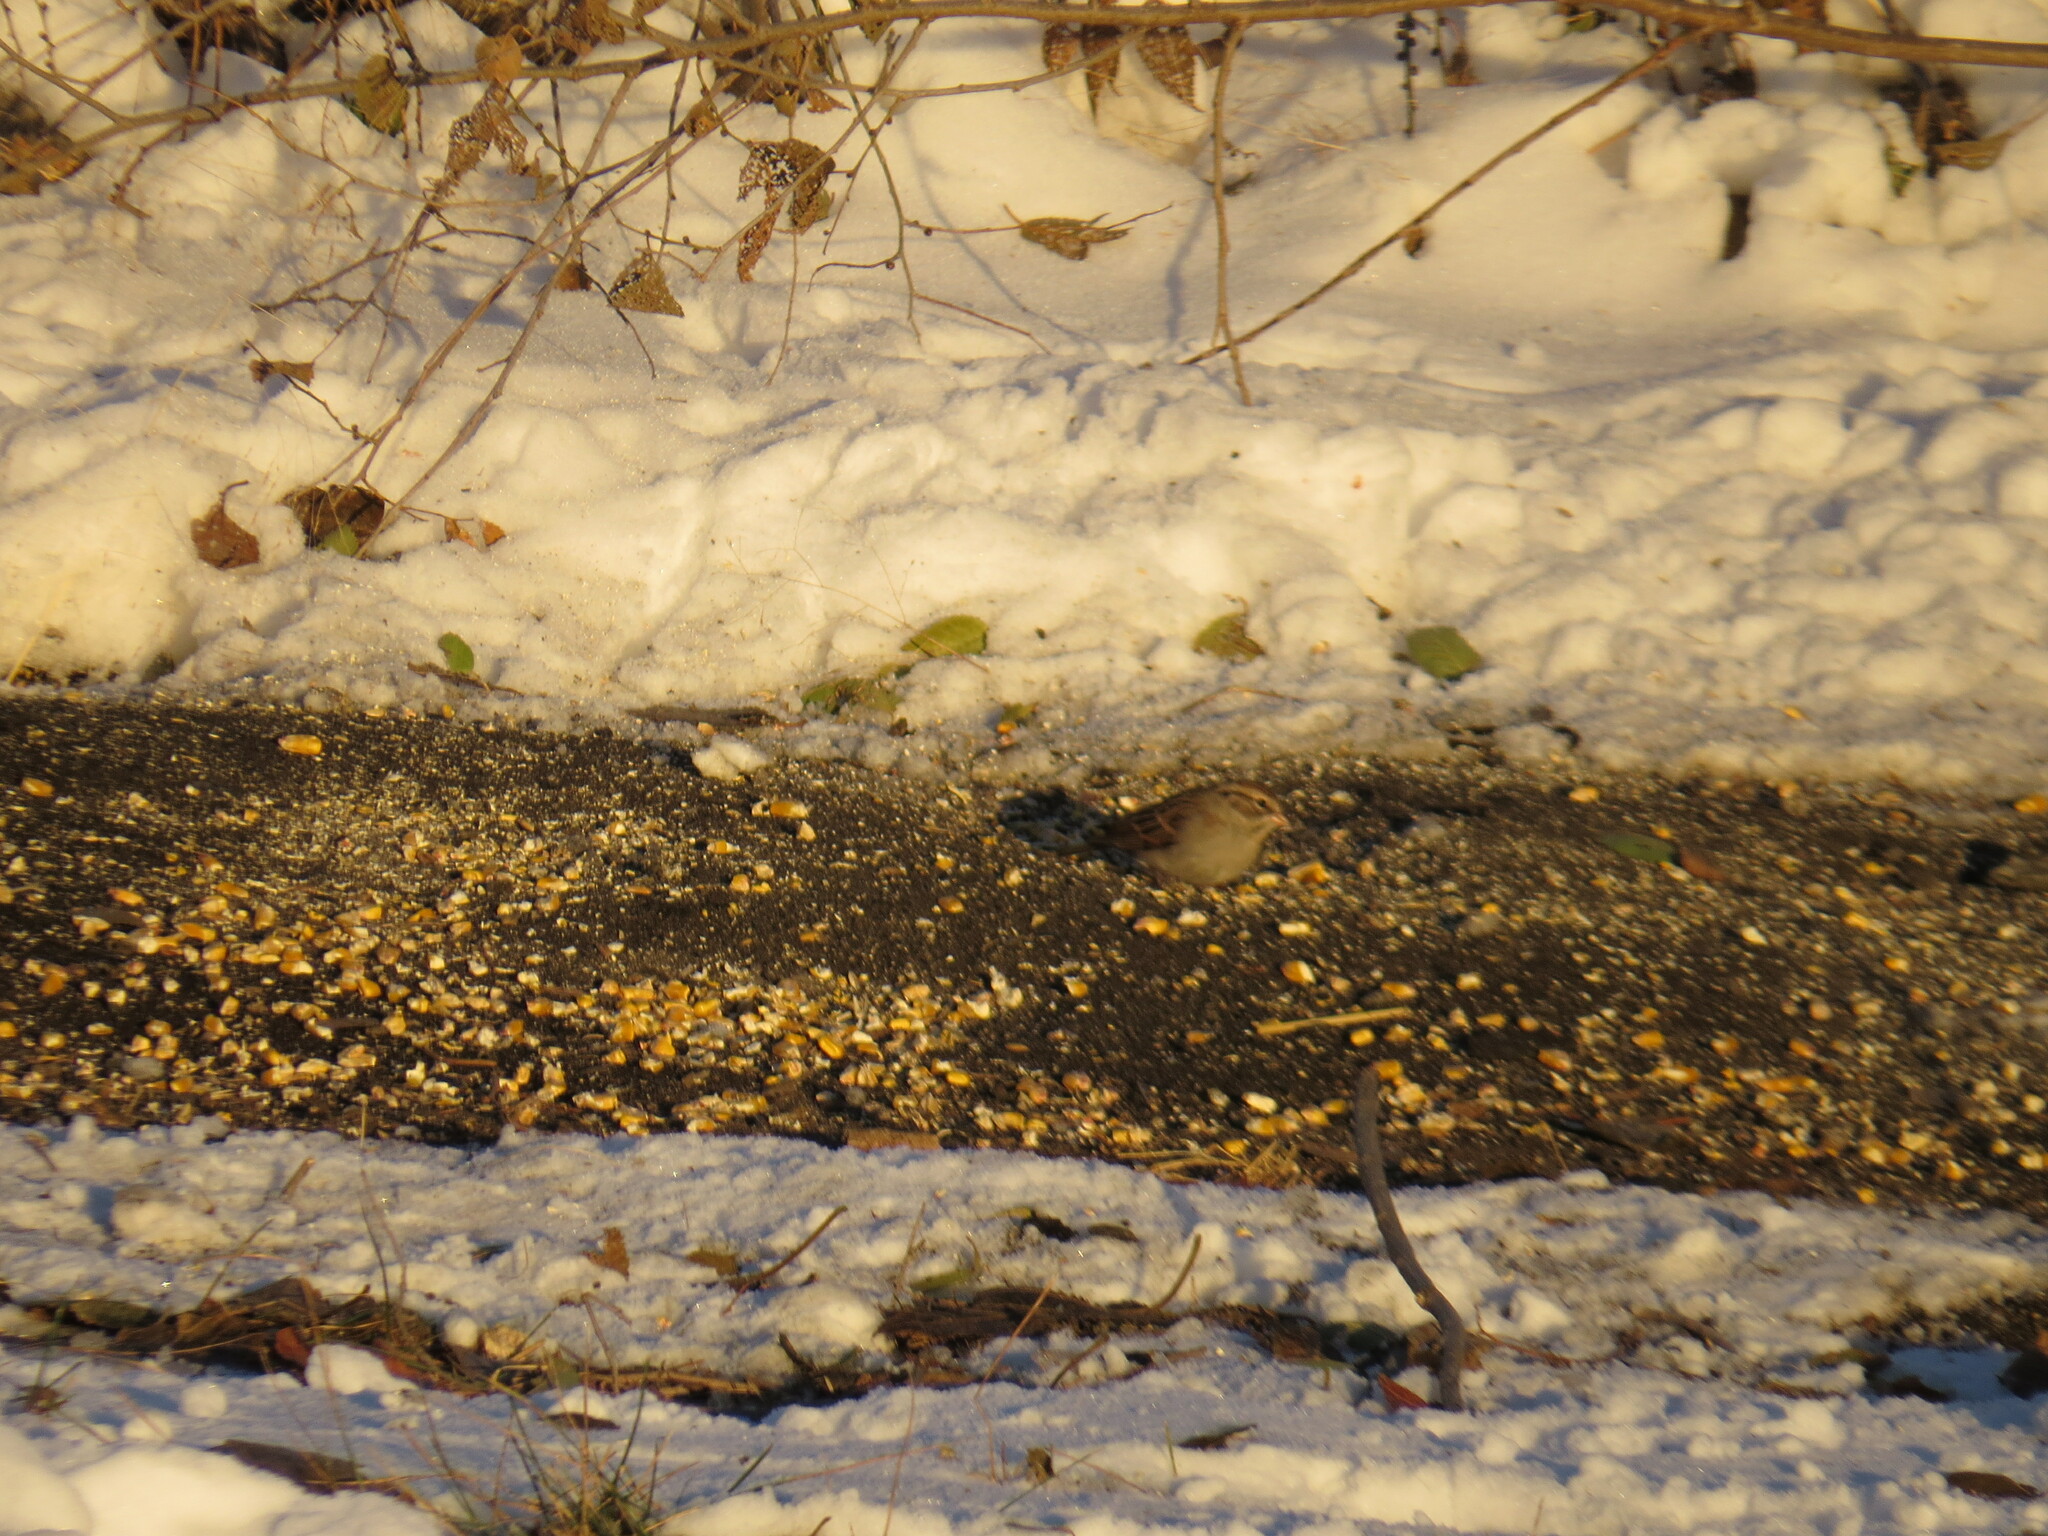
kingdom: Animalia
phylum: Chordata
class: Aves
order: Passeriformes
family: Passerellidae
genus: Spizella
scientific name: Spizella passerina
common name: Chipping sparrow
